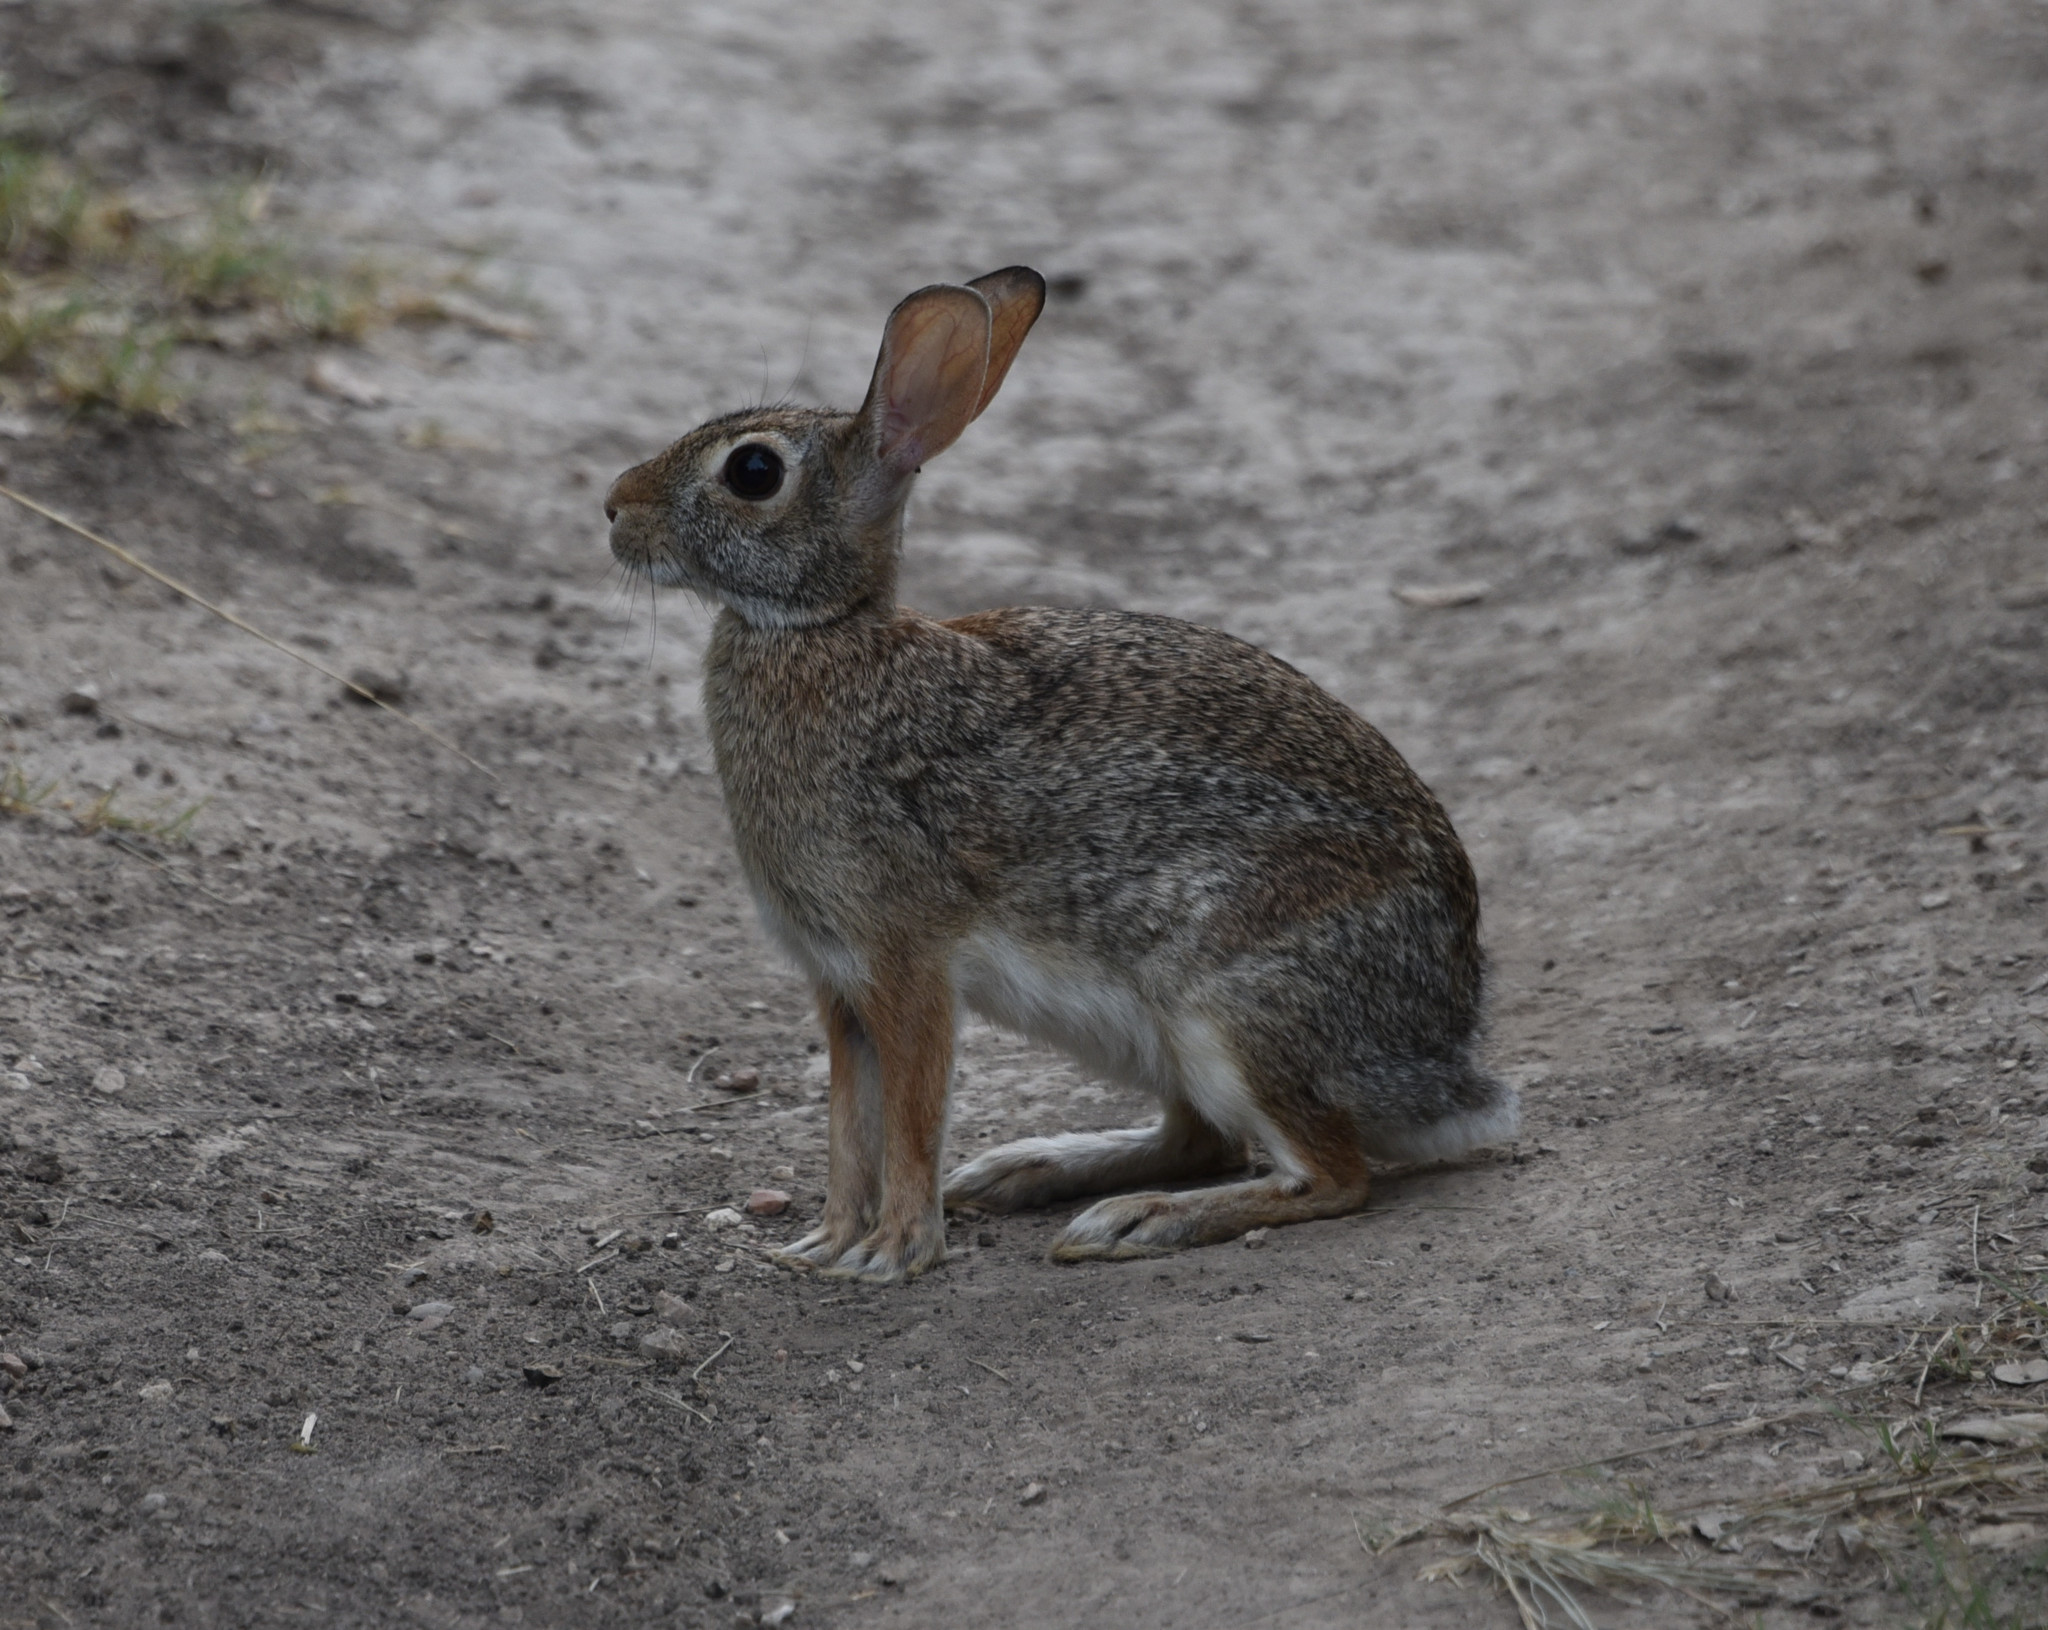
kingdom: Animalia
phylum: Chordata
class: Mammalia
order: Lagomorpha
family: Leporidae
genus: Sylvilagus
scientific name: Sylvilagus floridanus
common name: Eastern cottontail
